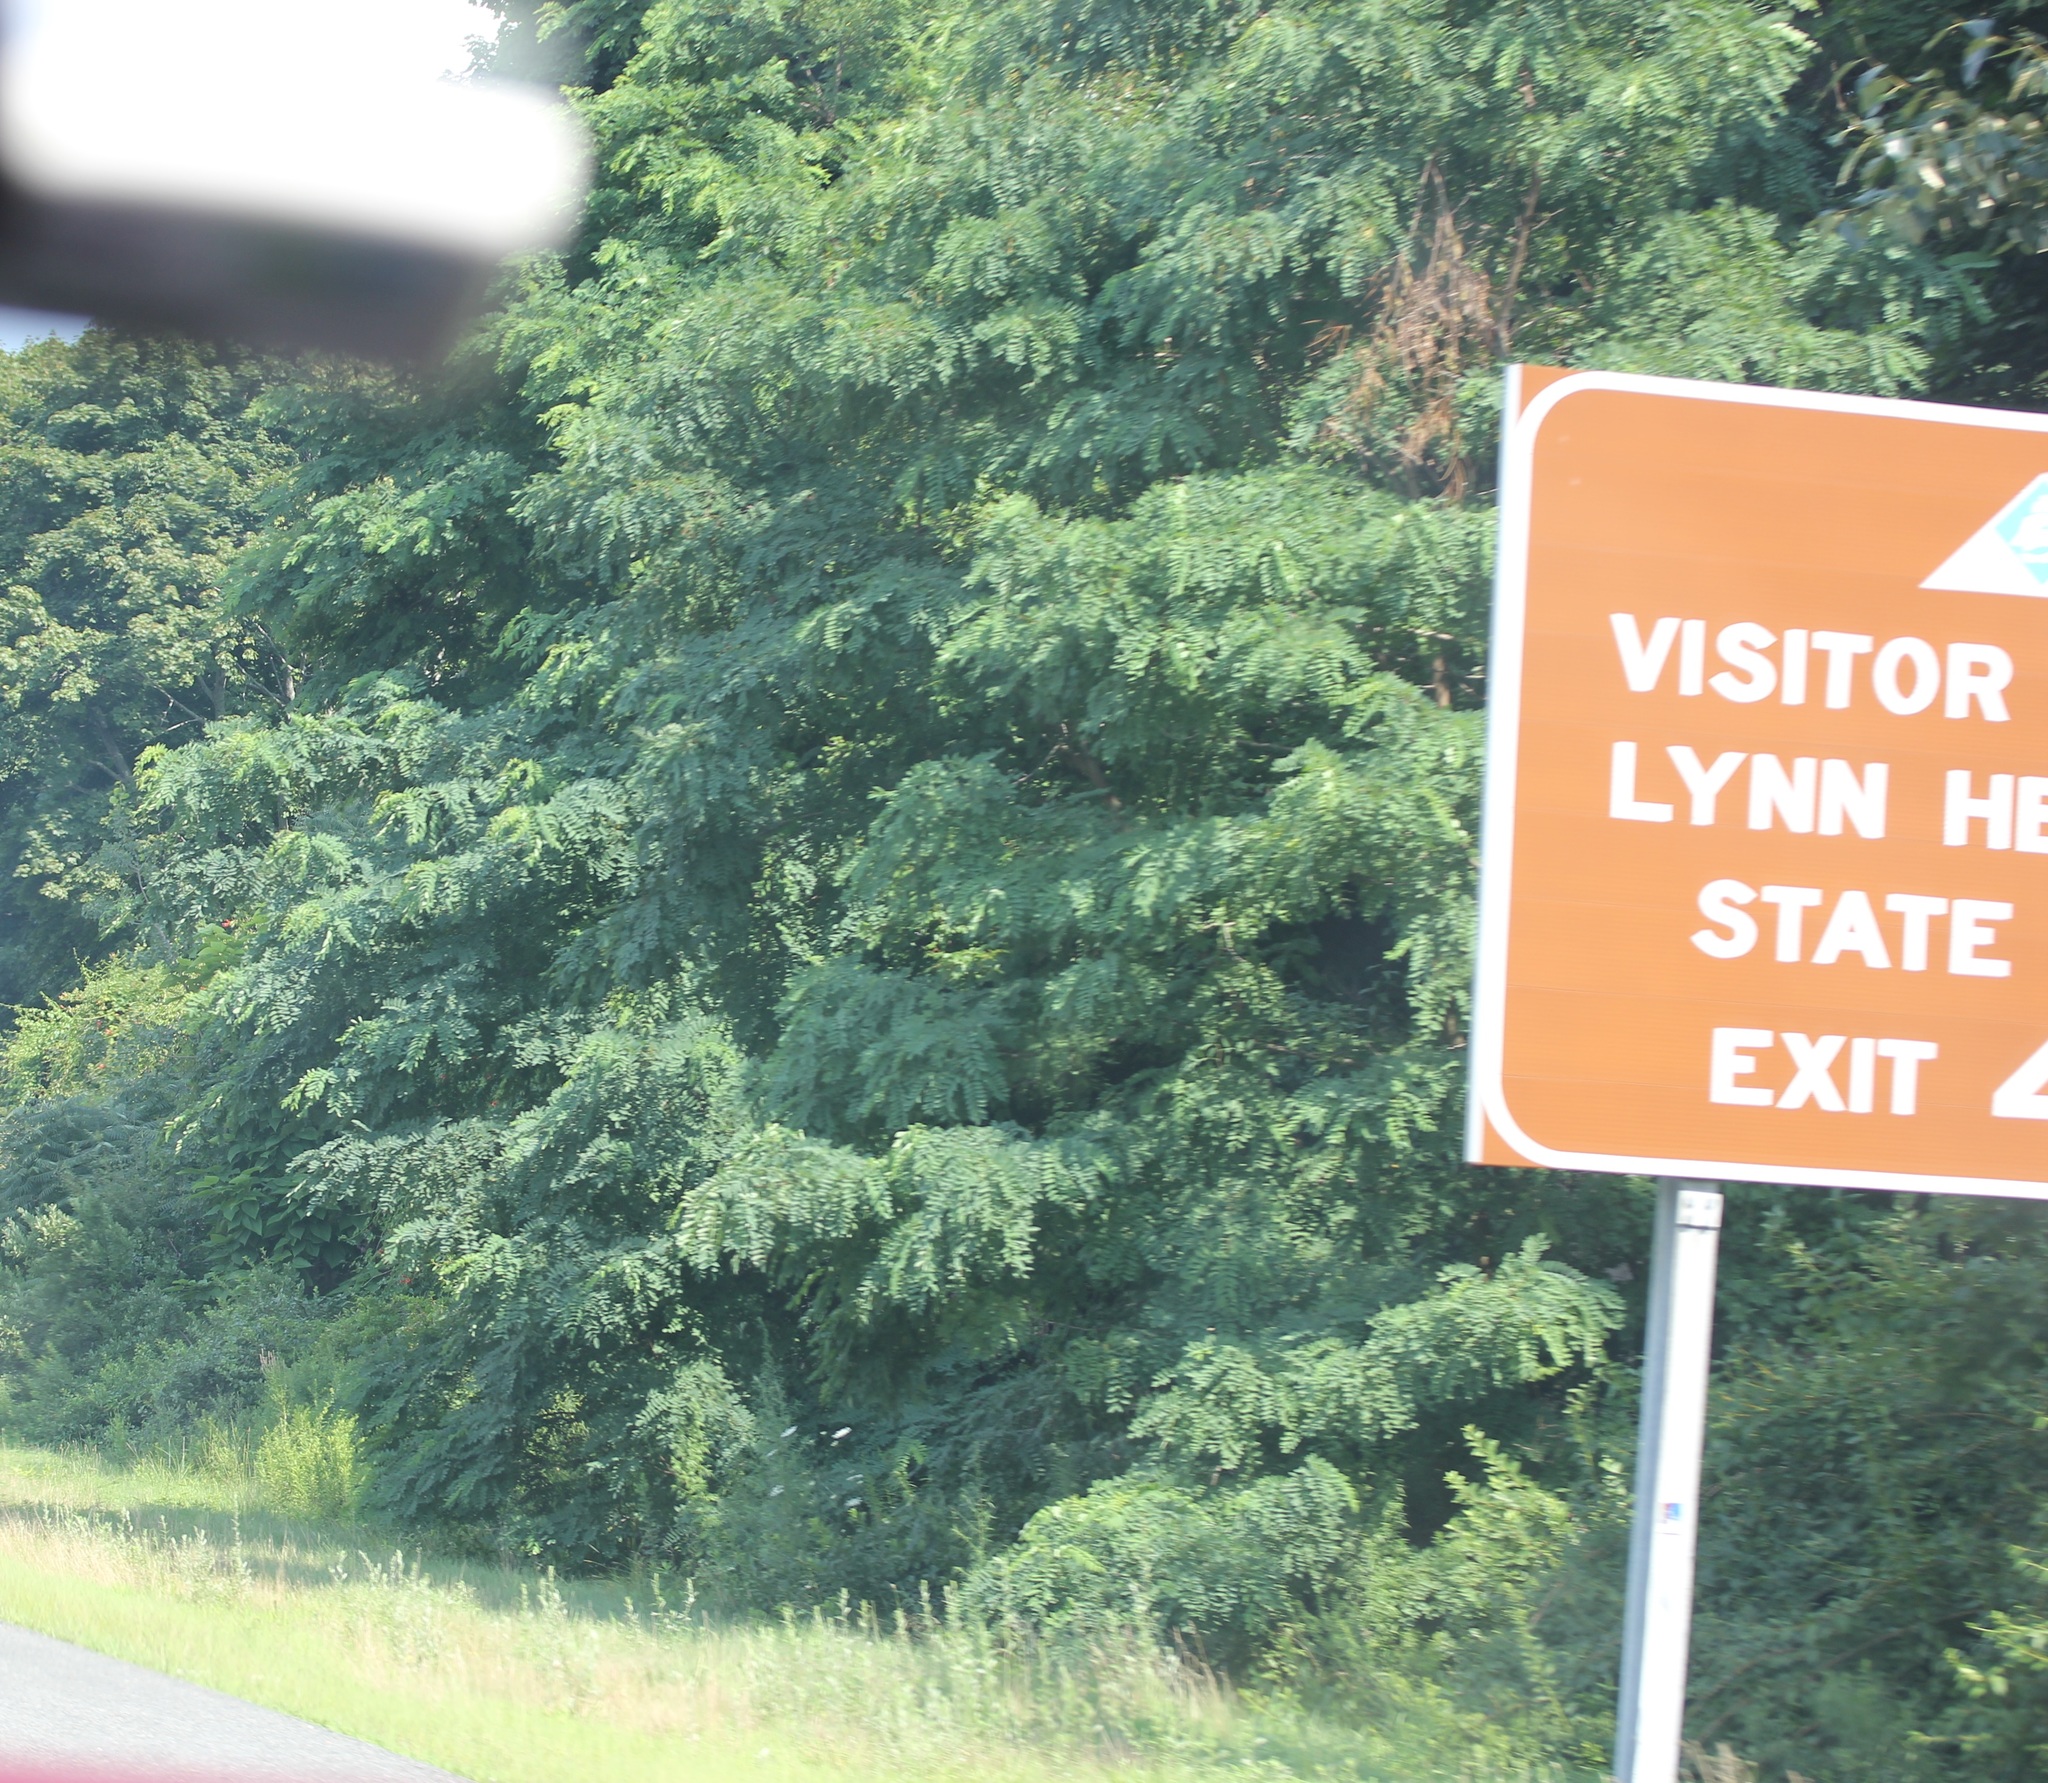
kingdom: Plantae
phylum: Tracheophyta
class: Magnoliopsida
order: Fabales
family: Fabaceae
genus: Robinia
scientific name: Robinia pseudoacacia
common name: Black locust
